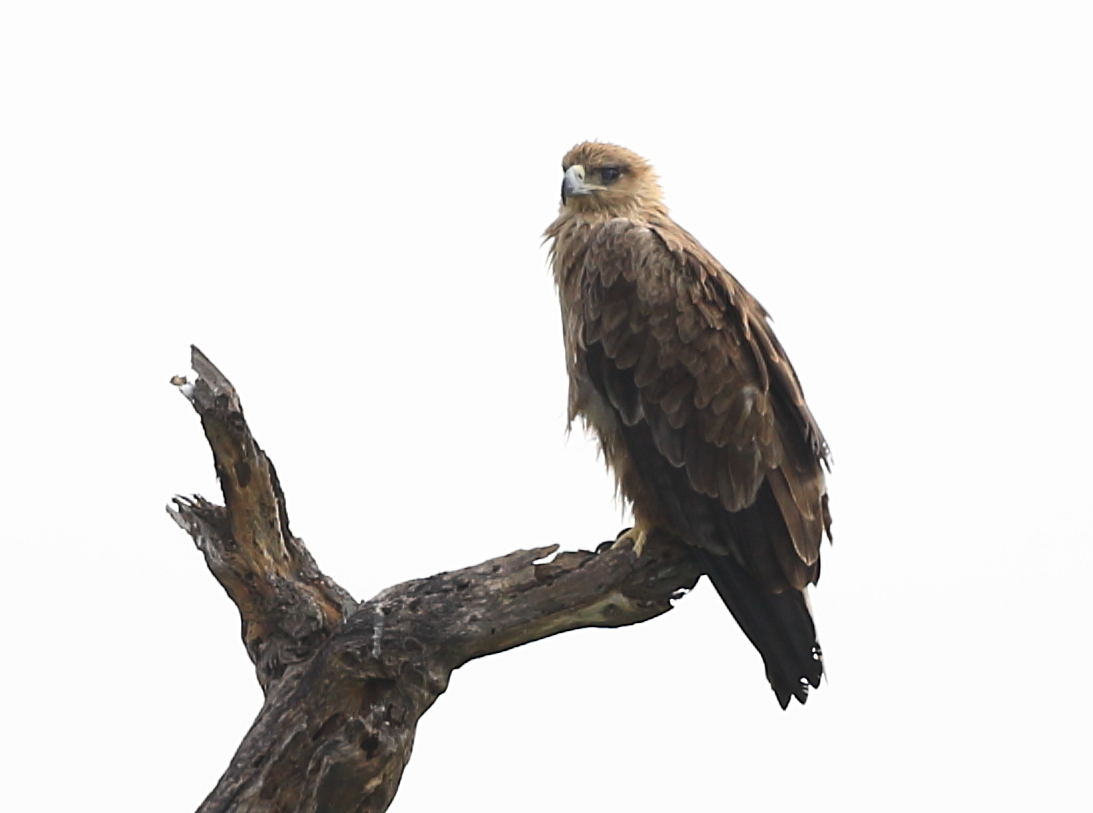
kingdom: Animalia
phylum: Chordata
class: Aves
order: Accipitriformes
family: Accipitridae
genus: Aquila
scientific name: Aquila rapax
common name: Tawny eagle
